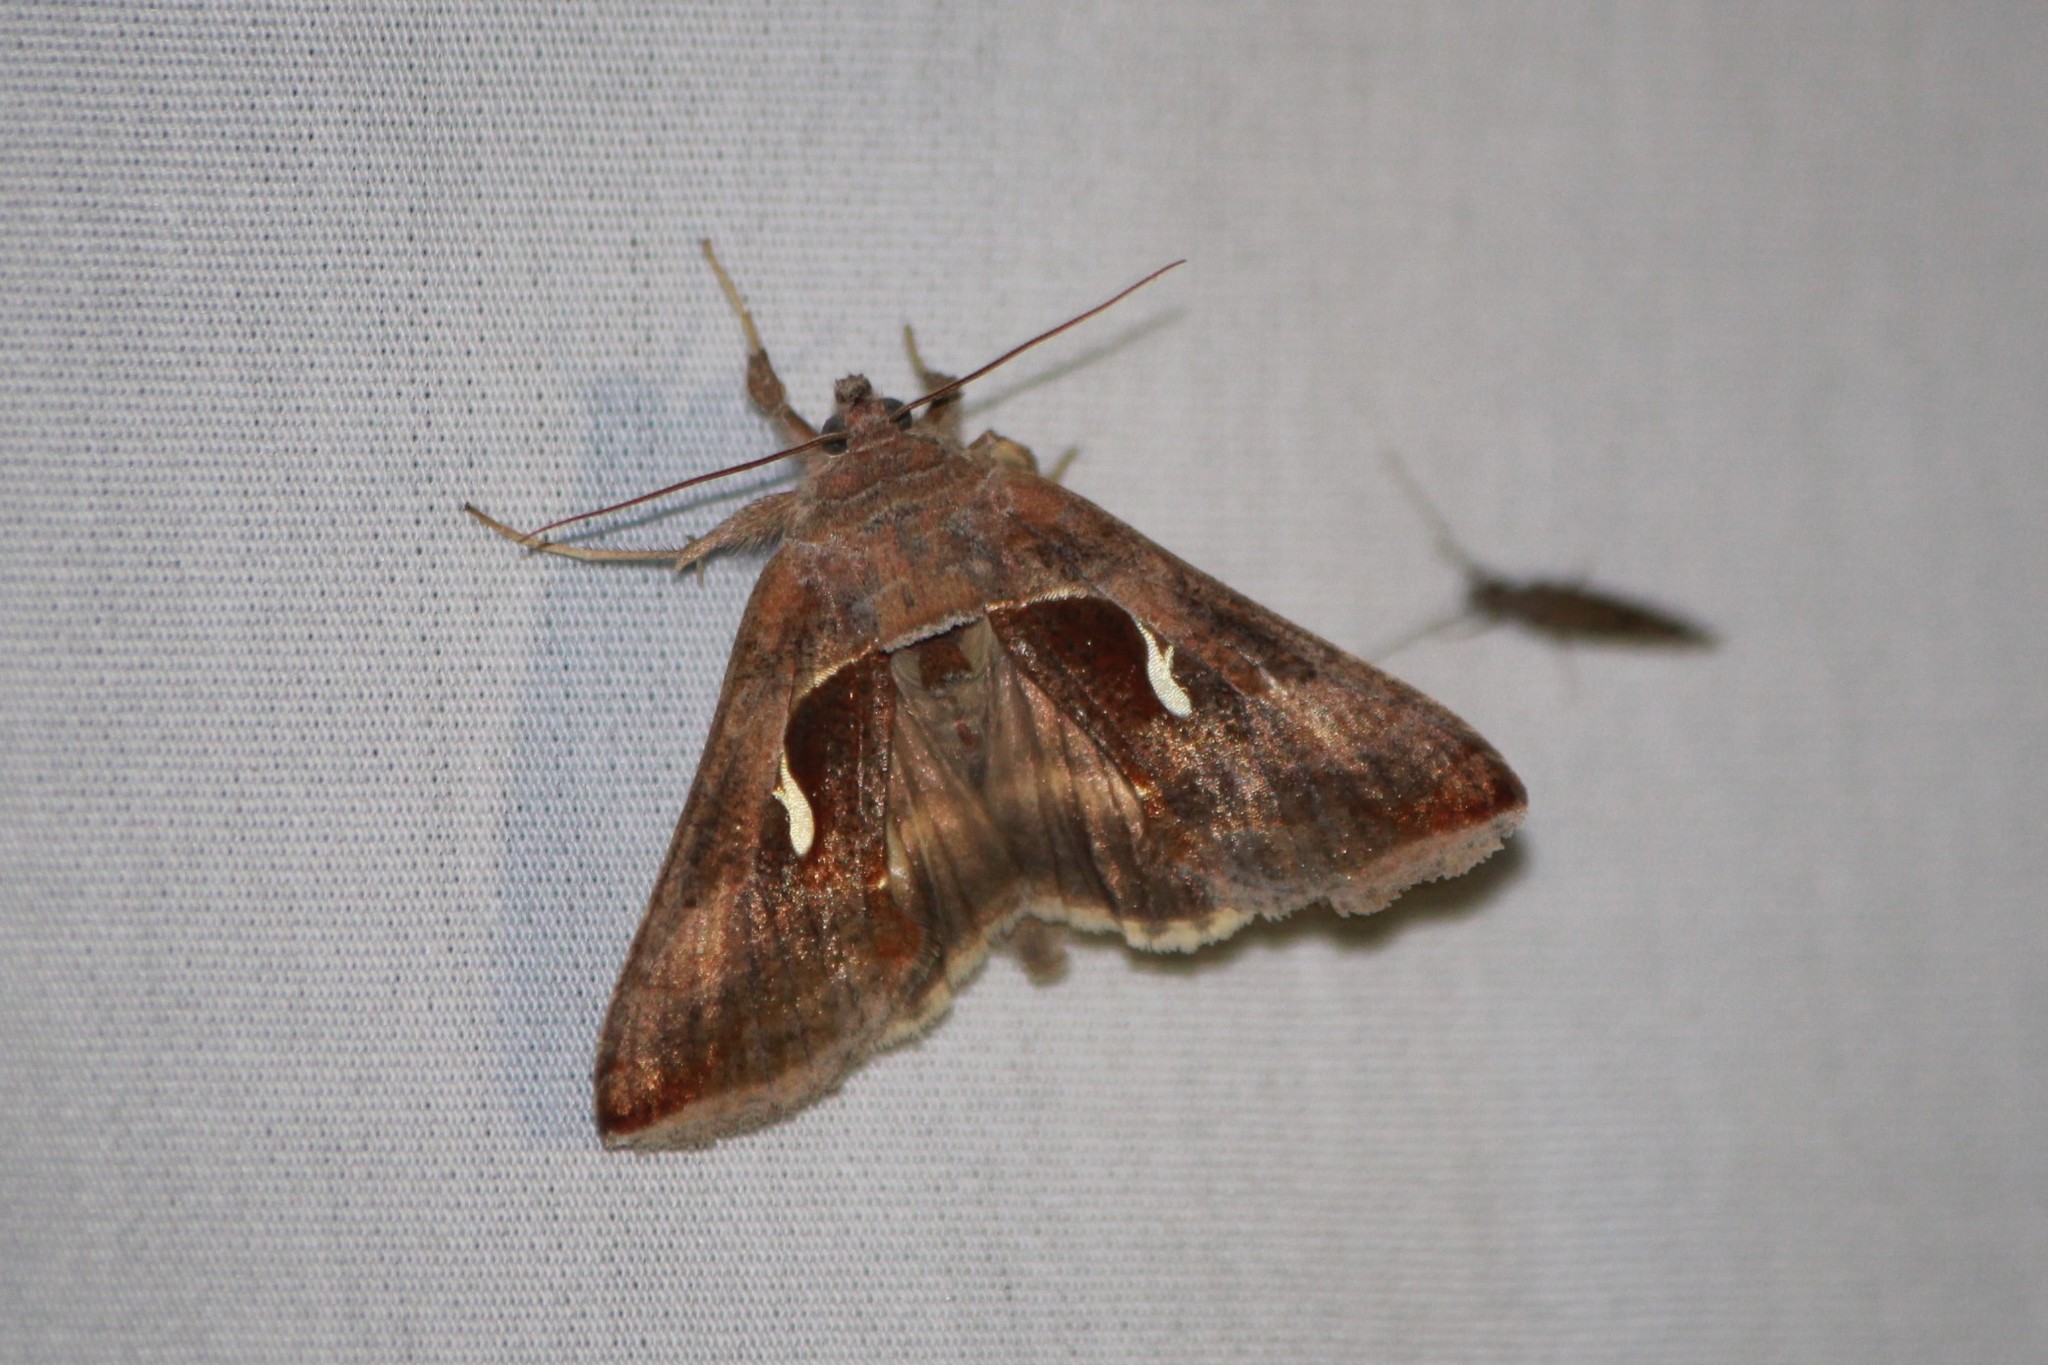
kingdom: Animalia
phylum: Arthropoda
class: Insecta
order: Lepidoptera
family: Noctuidae
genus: Anagrapha
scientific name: Anagrapha falcifera
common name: Celery looper
